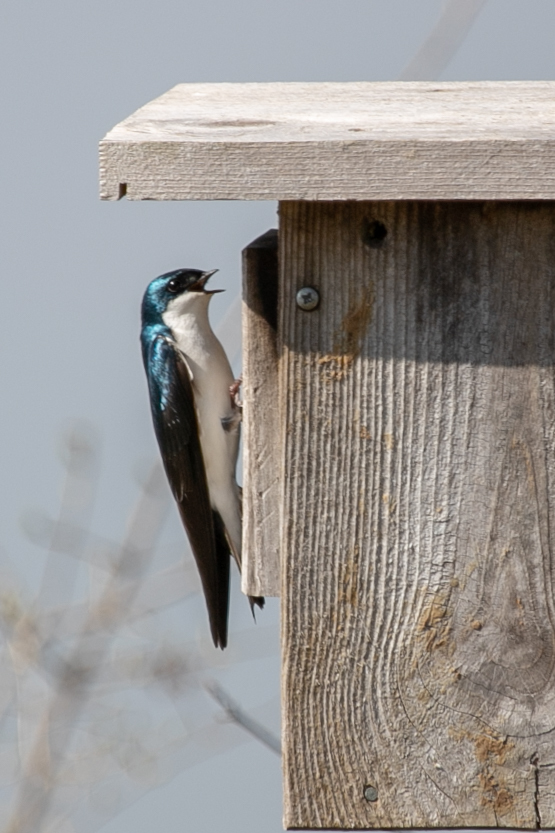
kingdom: Animalia
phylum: Chordata
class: Aves
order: Passeriformes
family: Hirundinidae
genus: Tachycineta
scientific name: Tachycineta bicolor
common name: Tree swallow
